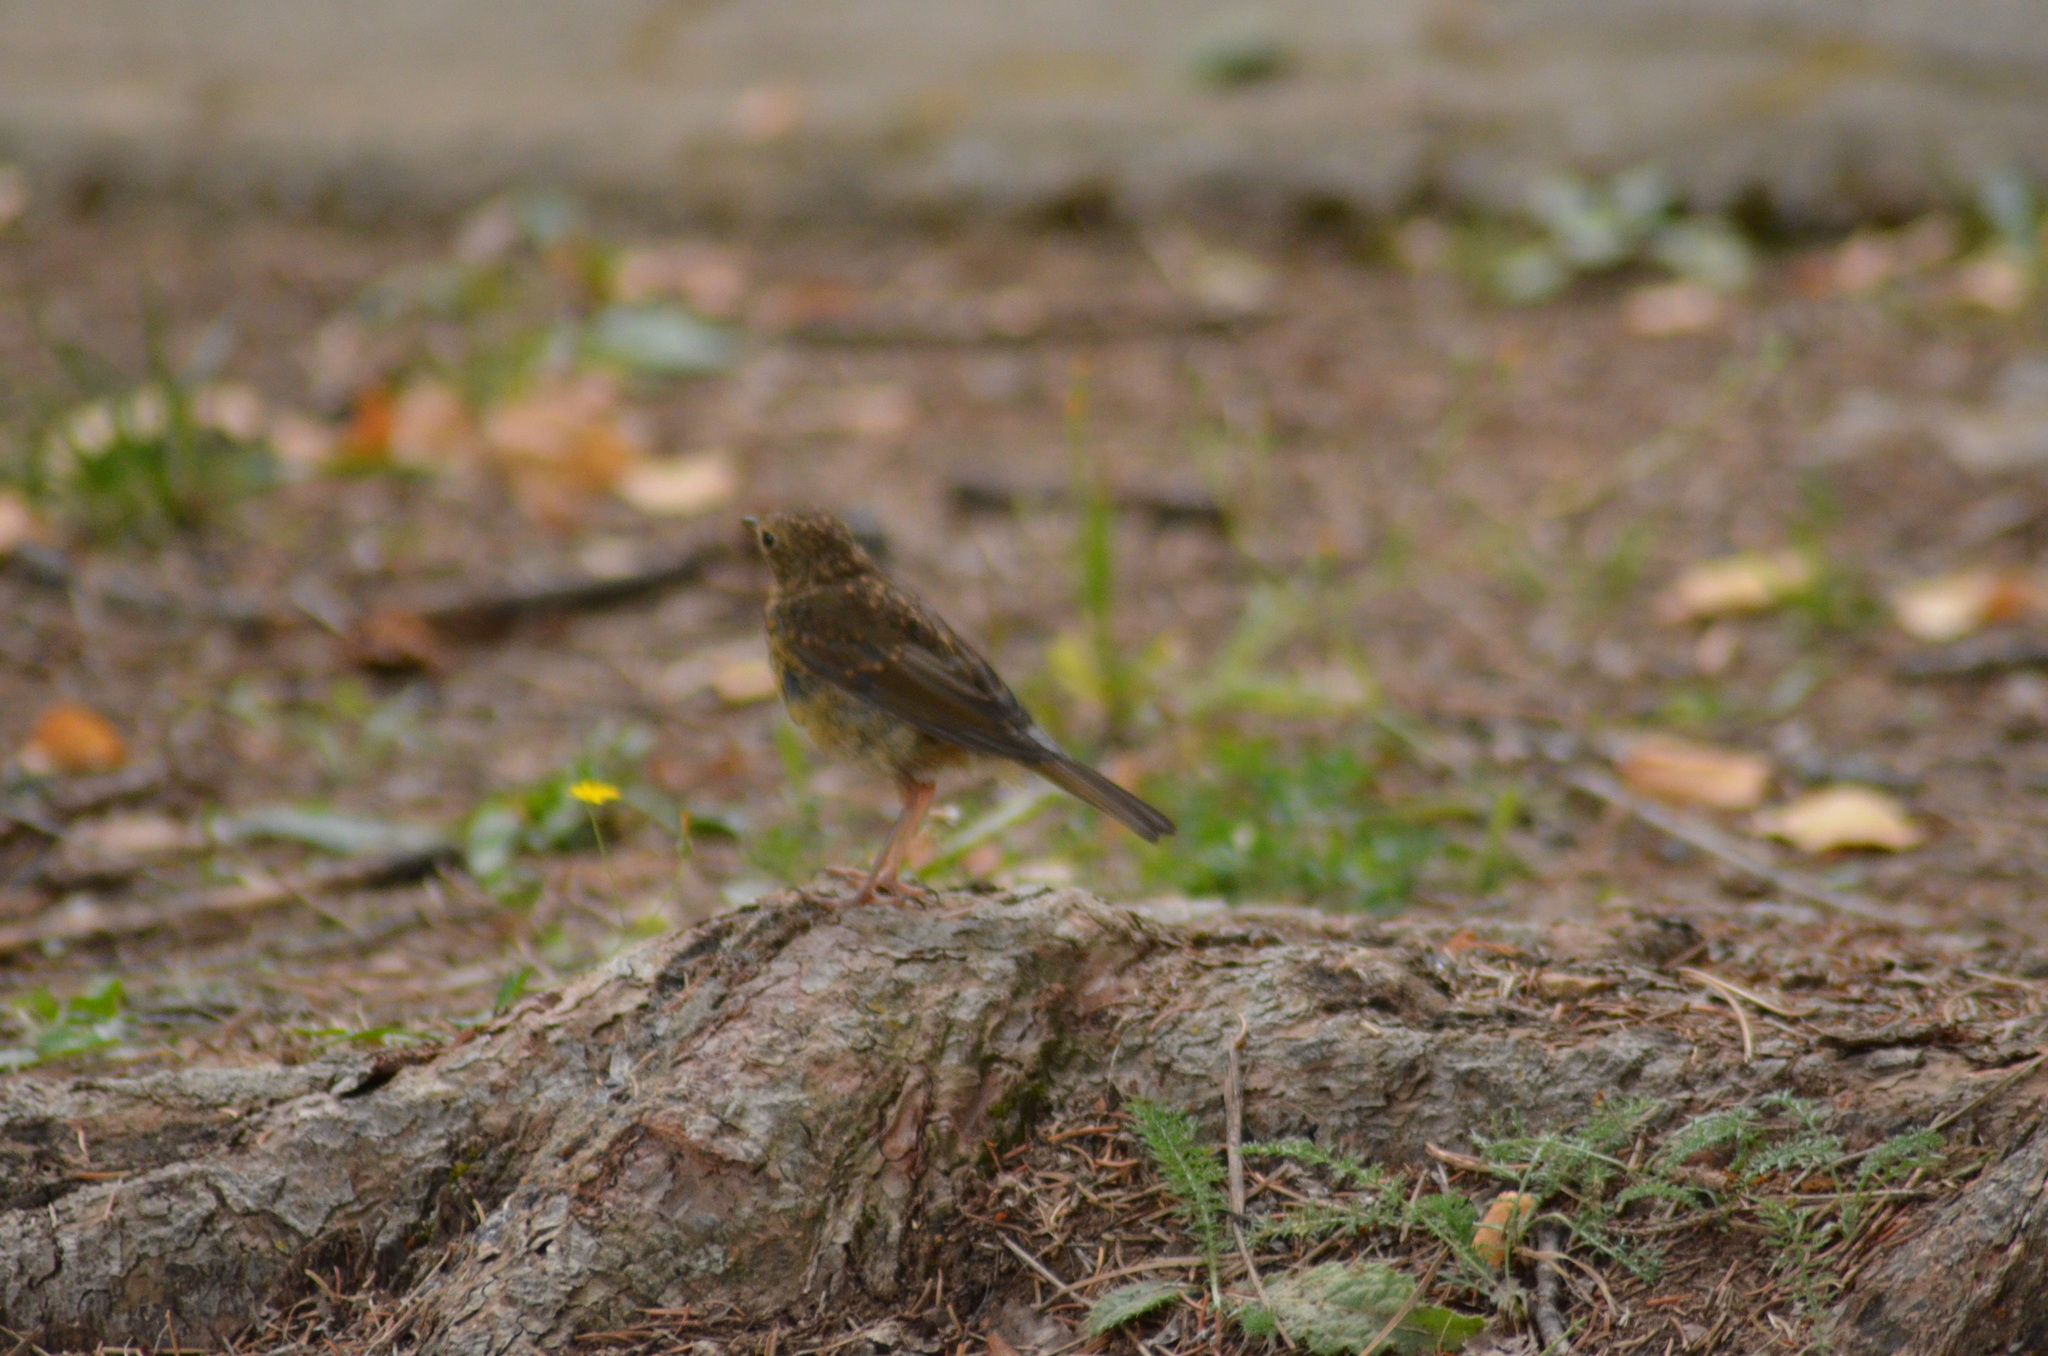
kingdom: Animalia
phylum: Chordata
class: Aves
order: Passeriformes
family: Muscicapidae
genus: Erithacus
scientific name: Erithacus rubecula
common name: European robin
